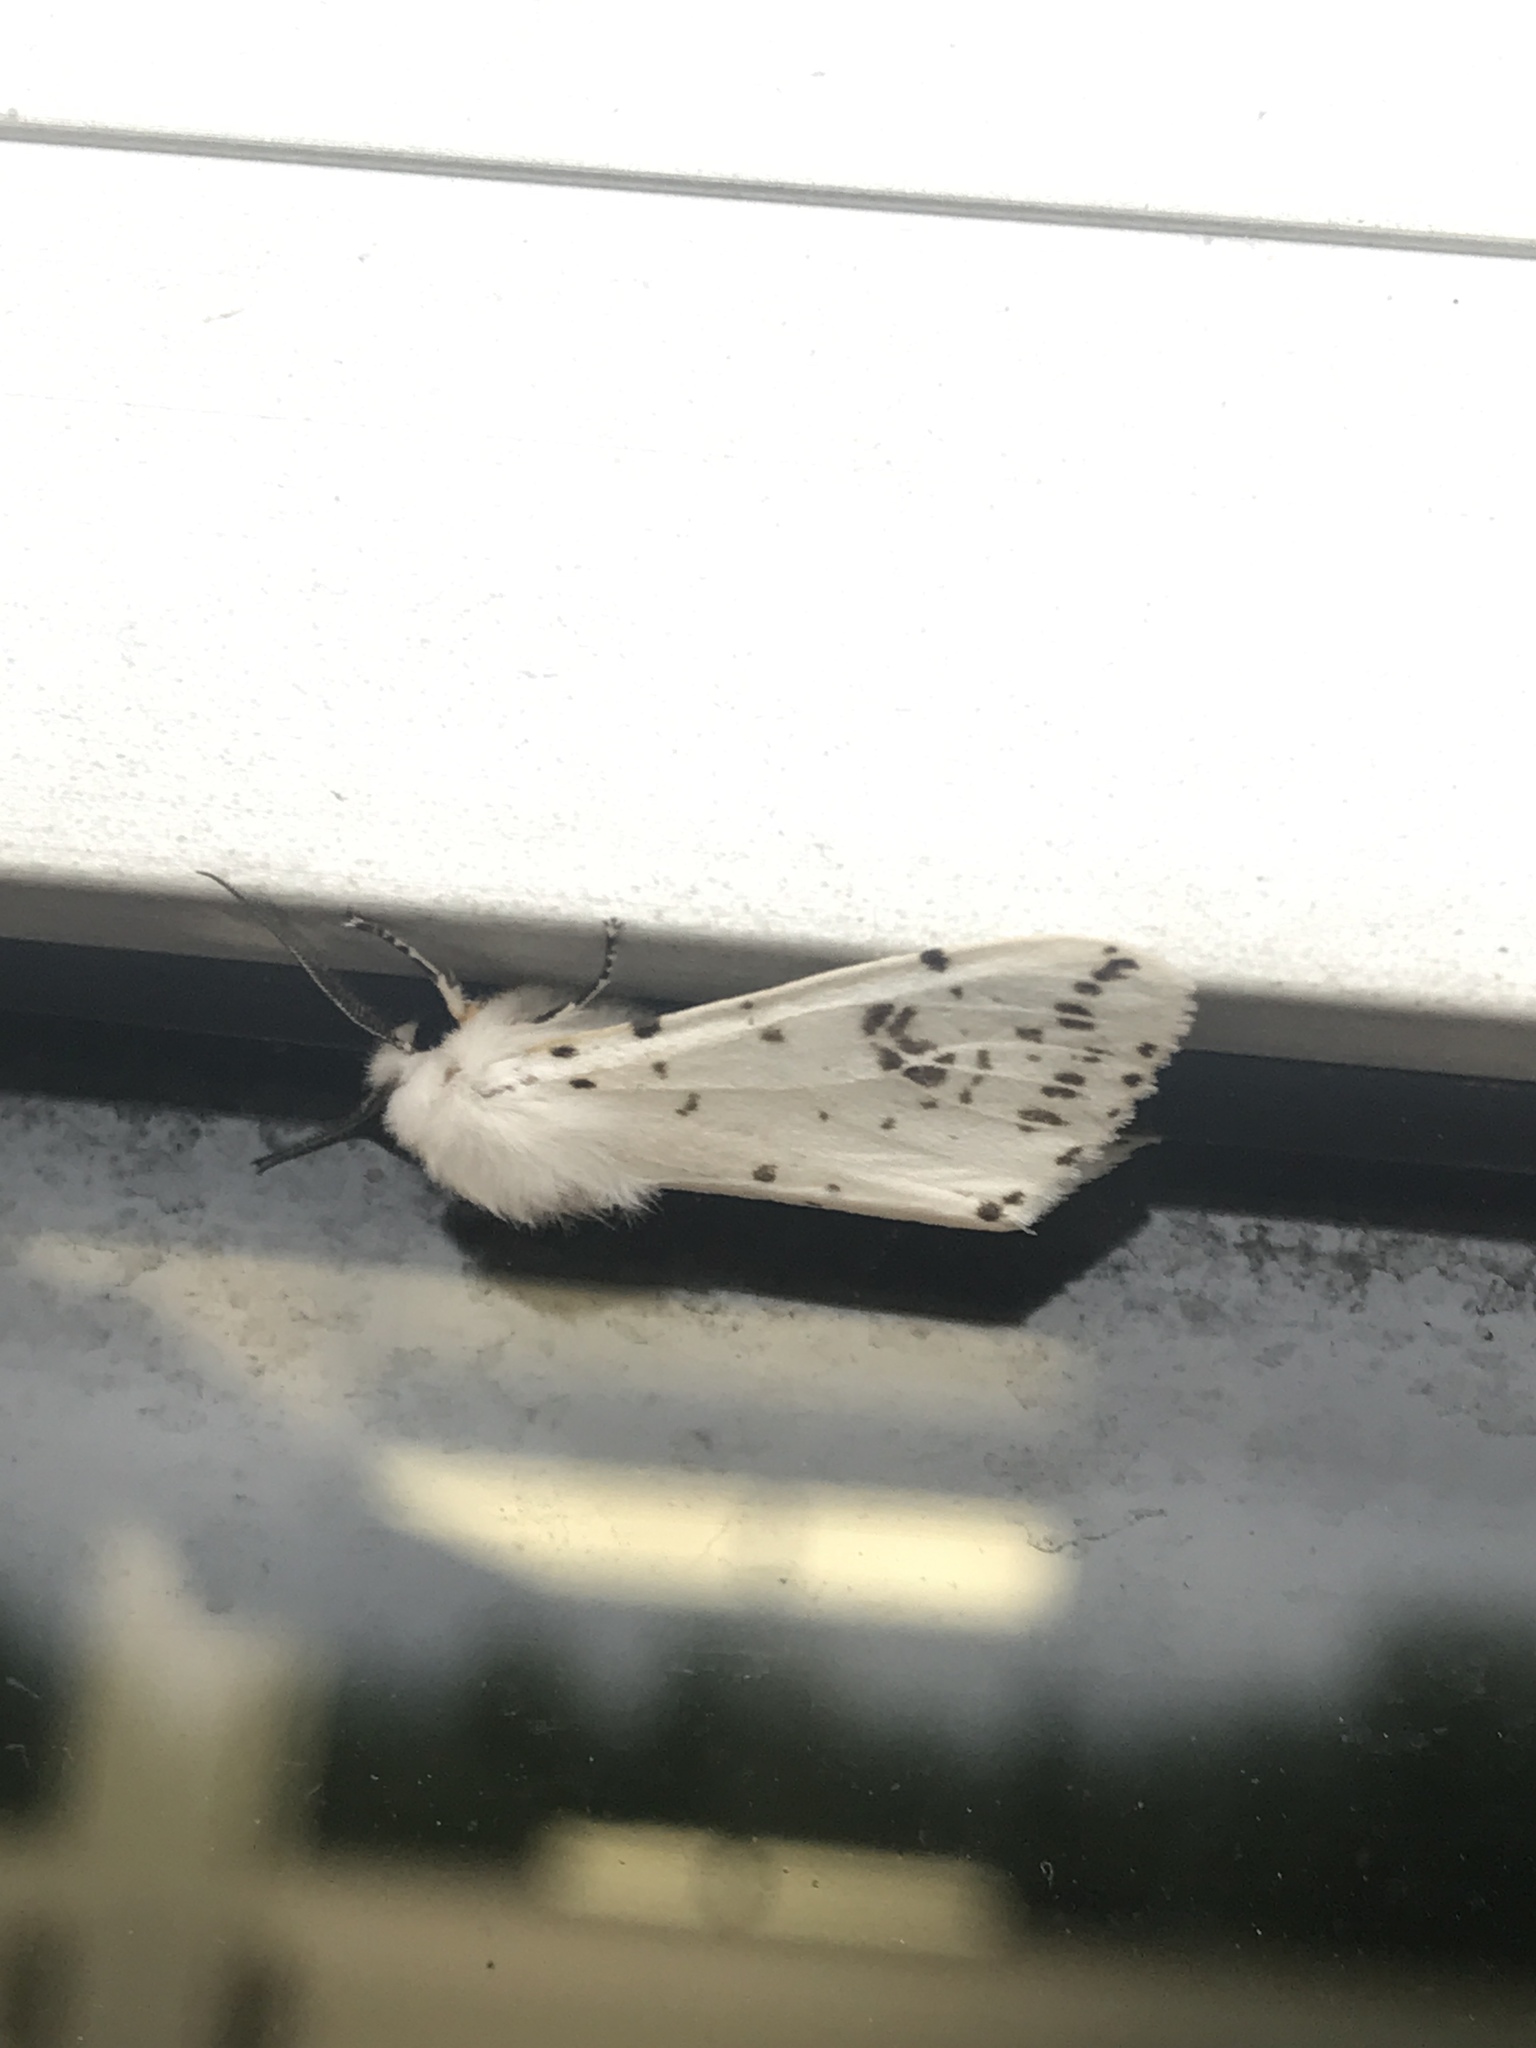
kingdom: Animalia
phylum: Arthropoda
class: Insecta
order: Lepidoptera
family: Erebidae
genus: Hyphantria
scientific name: Hyphantria cunea
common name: American white moth
